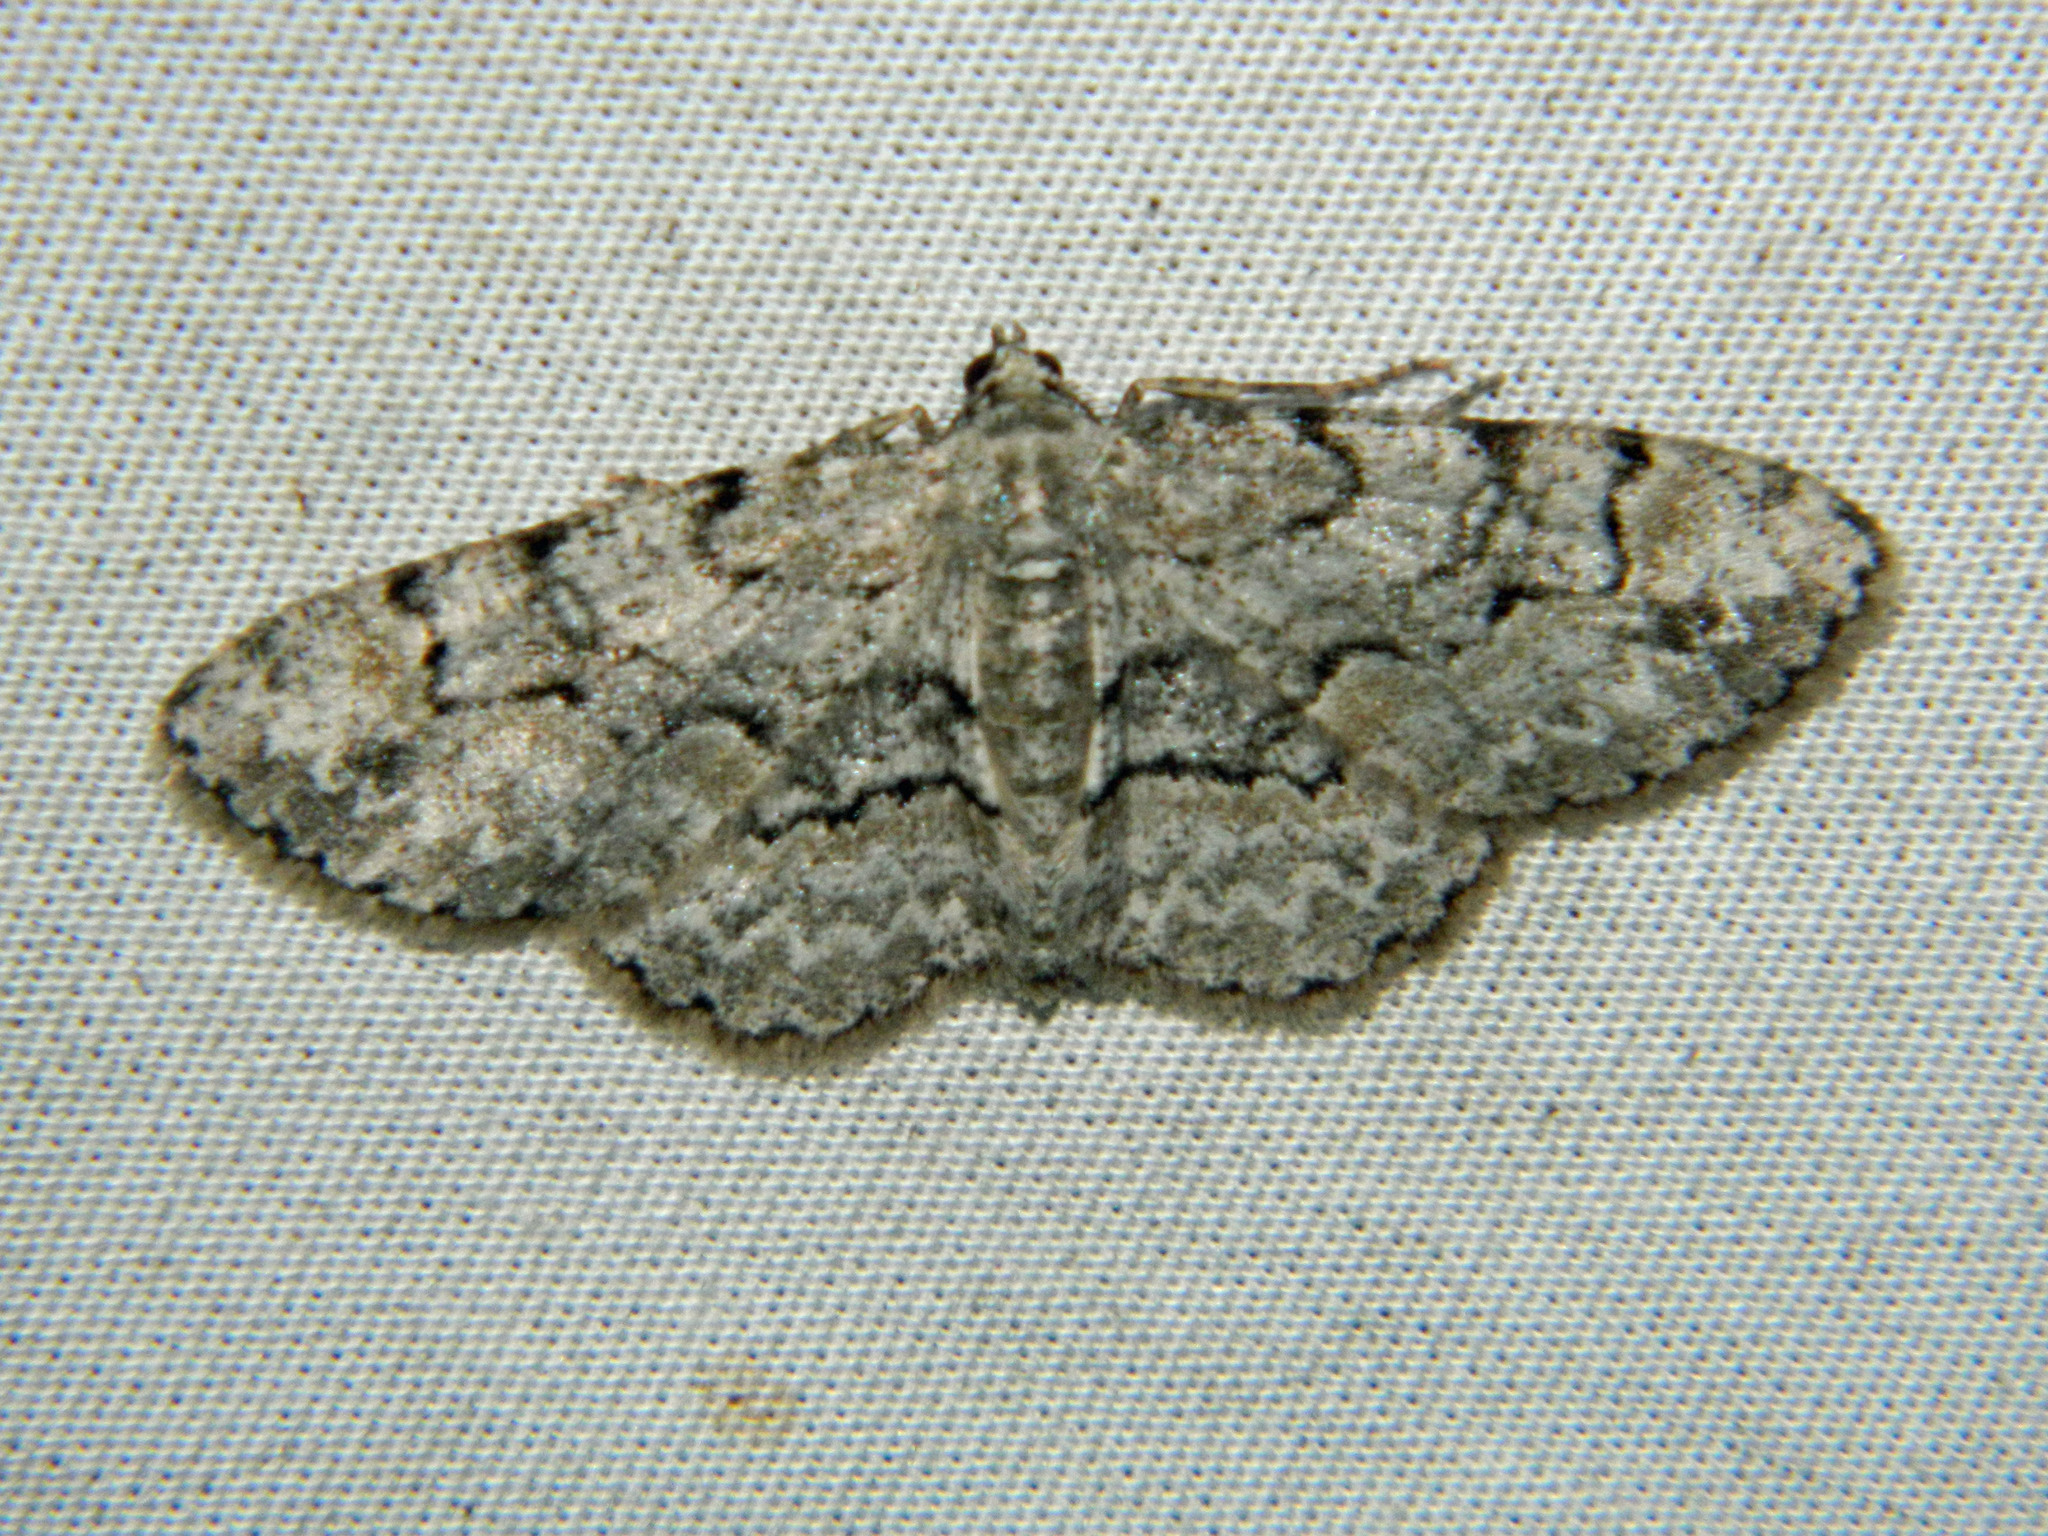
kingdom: Animalia
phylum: Arthropoda
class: Insecta
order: Lepidoptera
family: Geometridae
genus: Iridopsis
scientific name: Iridopsis ephyraria
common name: Pale-winged gray
